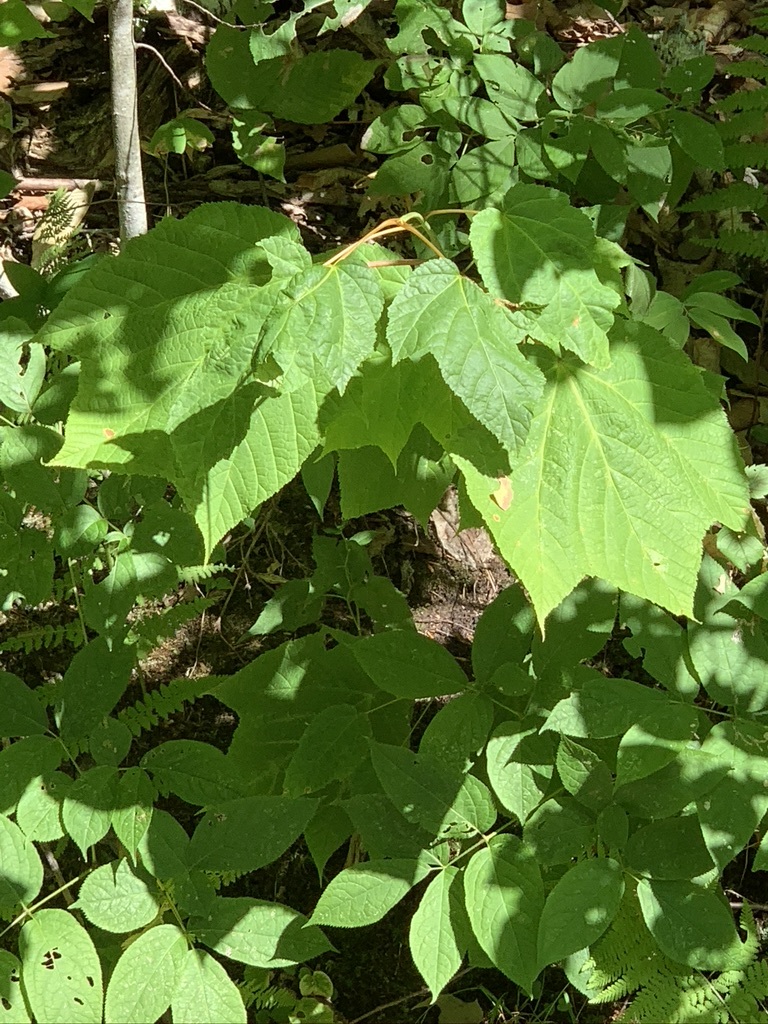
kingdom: Plantae
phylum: Tracheophyta
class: Magnoliopsida
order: Sapindales
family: Sapindaceae
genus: Acer
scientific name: Acer pensylvanicum
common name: Moosewood
